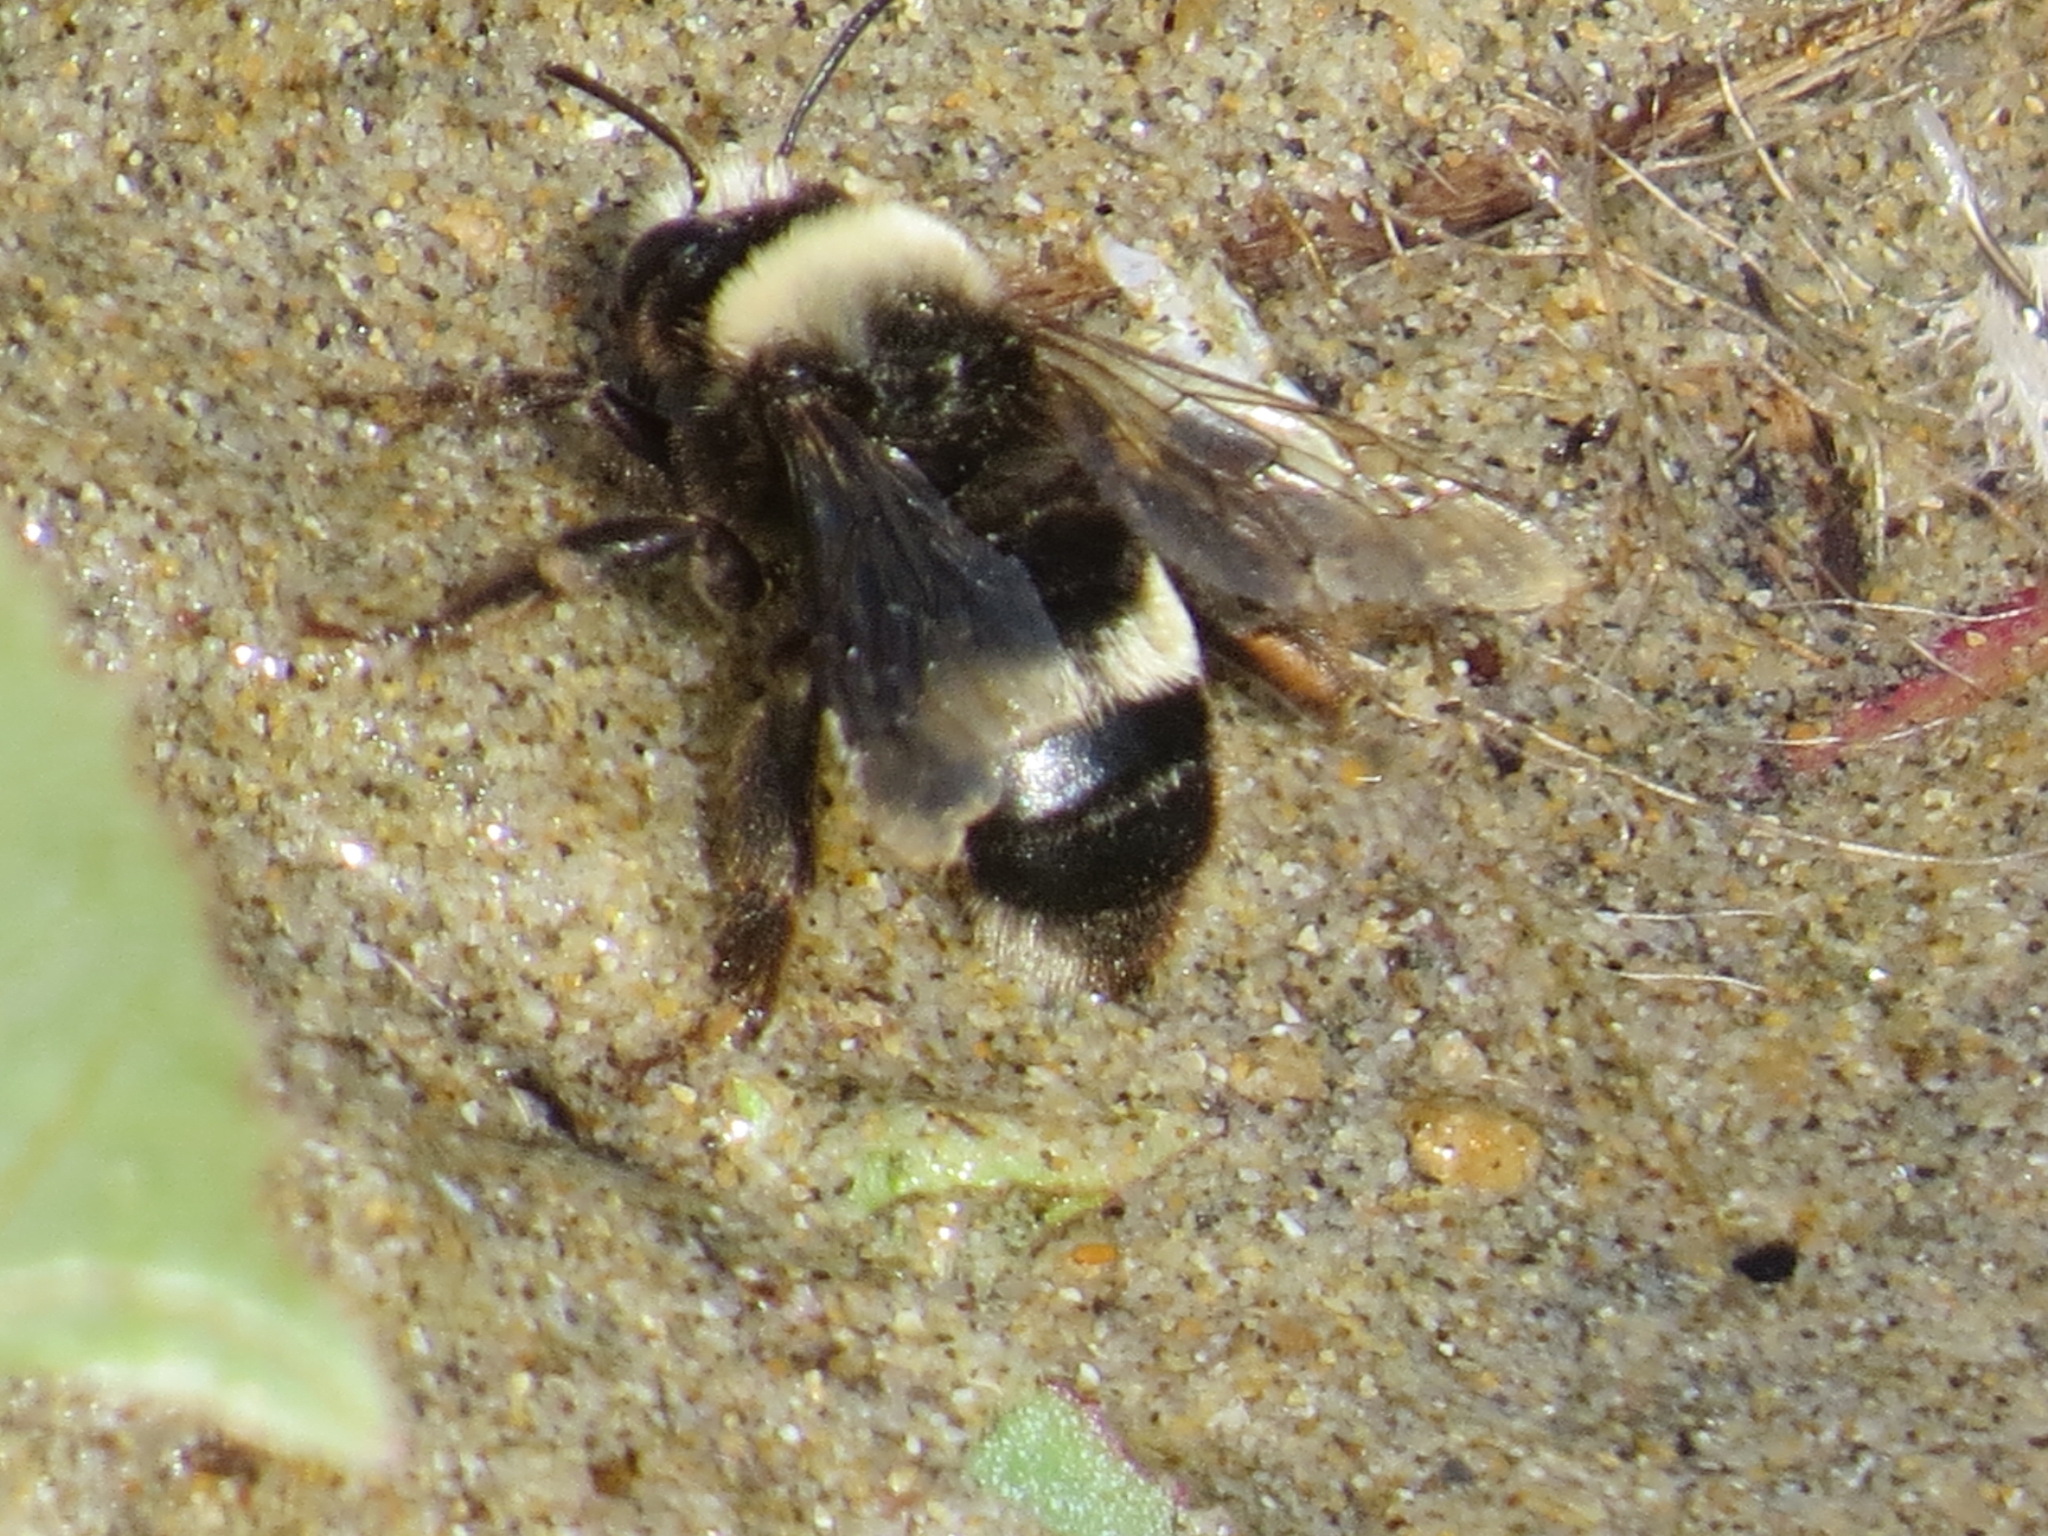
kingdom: Animalia
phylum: Arthropoda
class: Insecta
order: Hymenoptera
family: Apidae
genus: Anthophora
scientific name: Anthophora bomboides
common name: Bumble-bee-mimic digger bee
